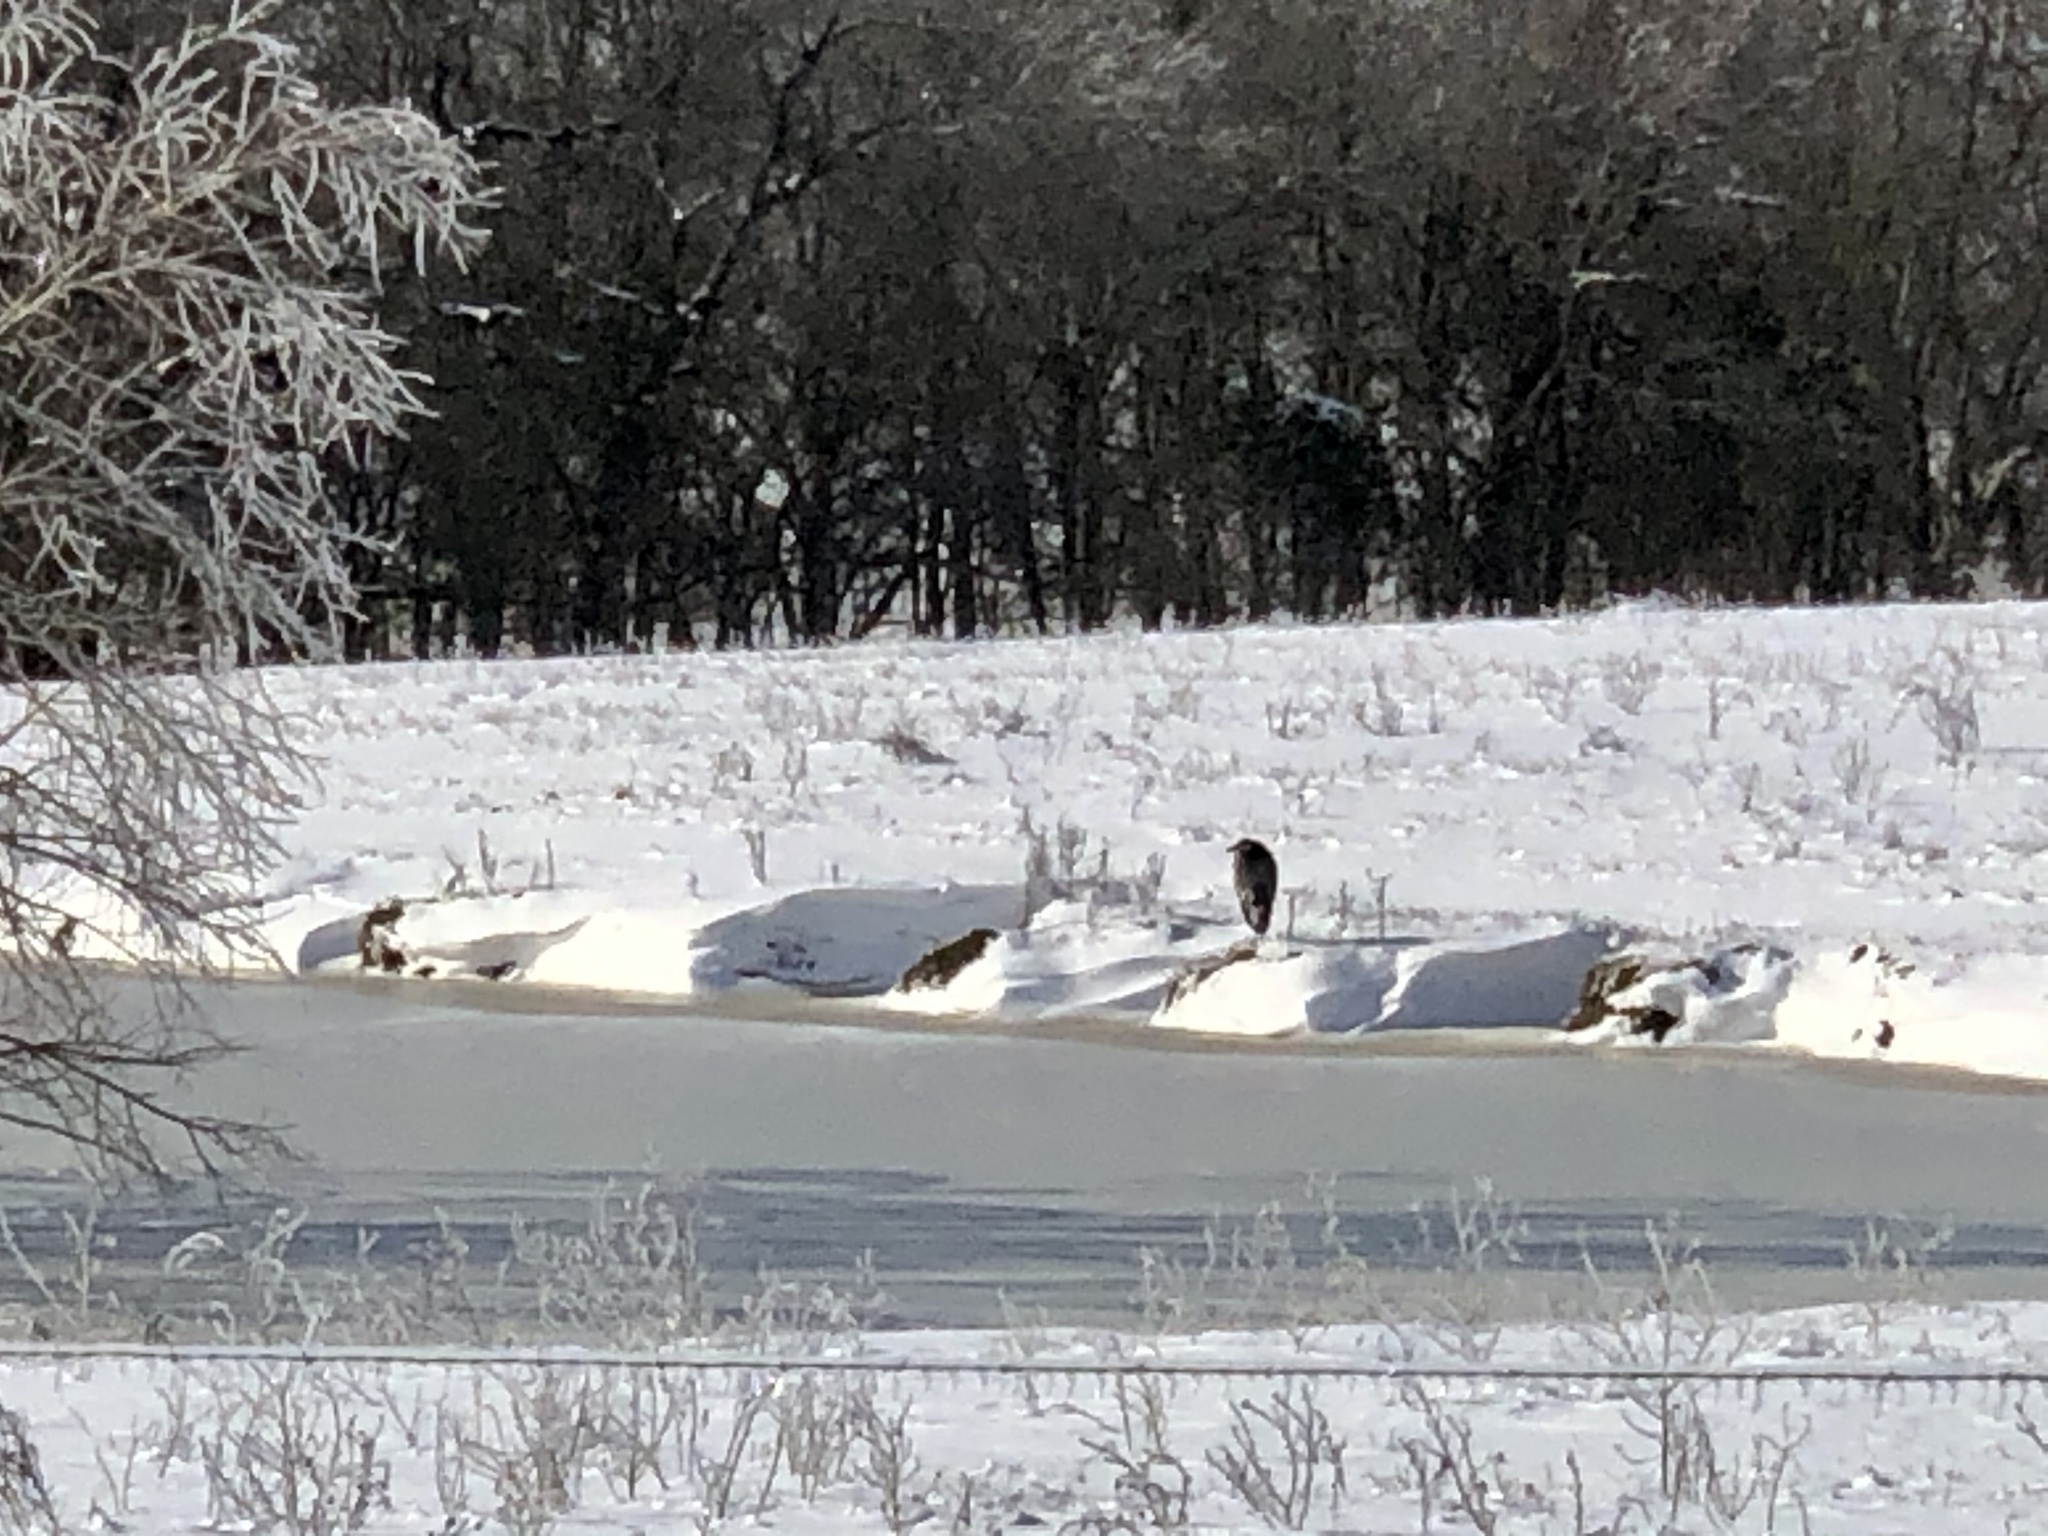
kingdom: Animalia
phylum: Chordata
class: Aves
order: Pelecaniformes
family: Ardeidae
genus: Ardea
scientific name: Ardea herodias
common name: Great blue heron
